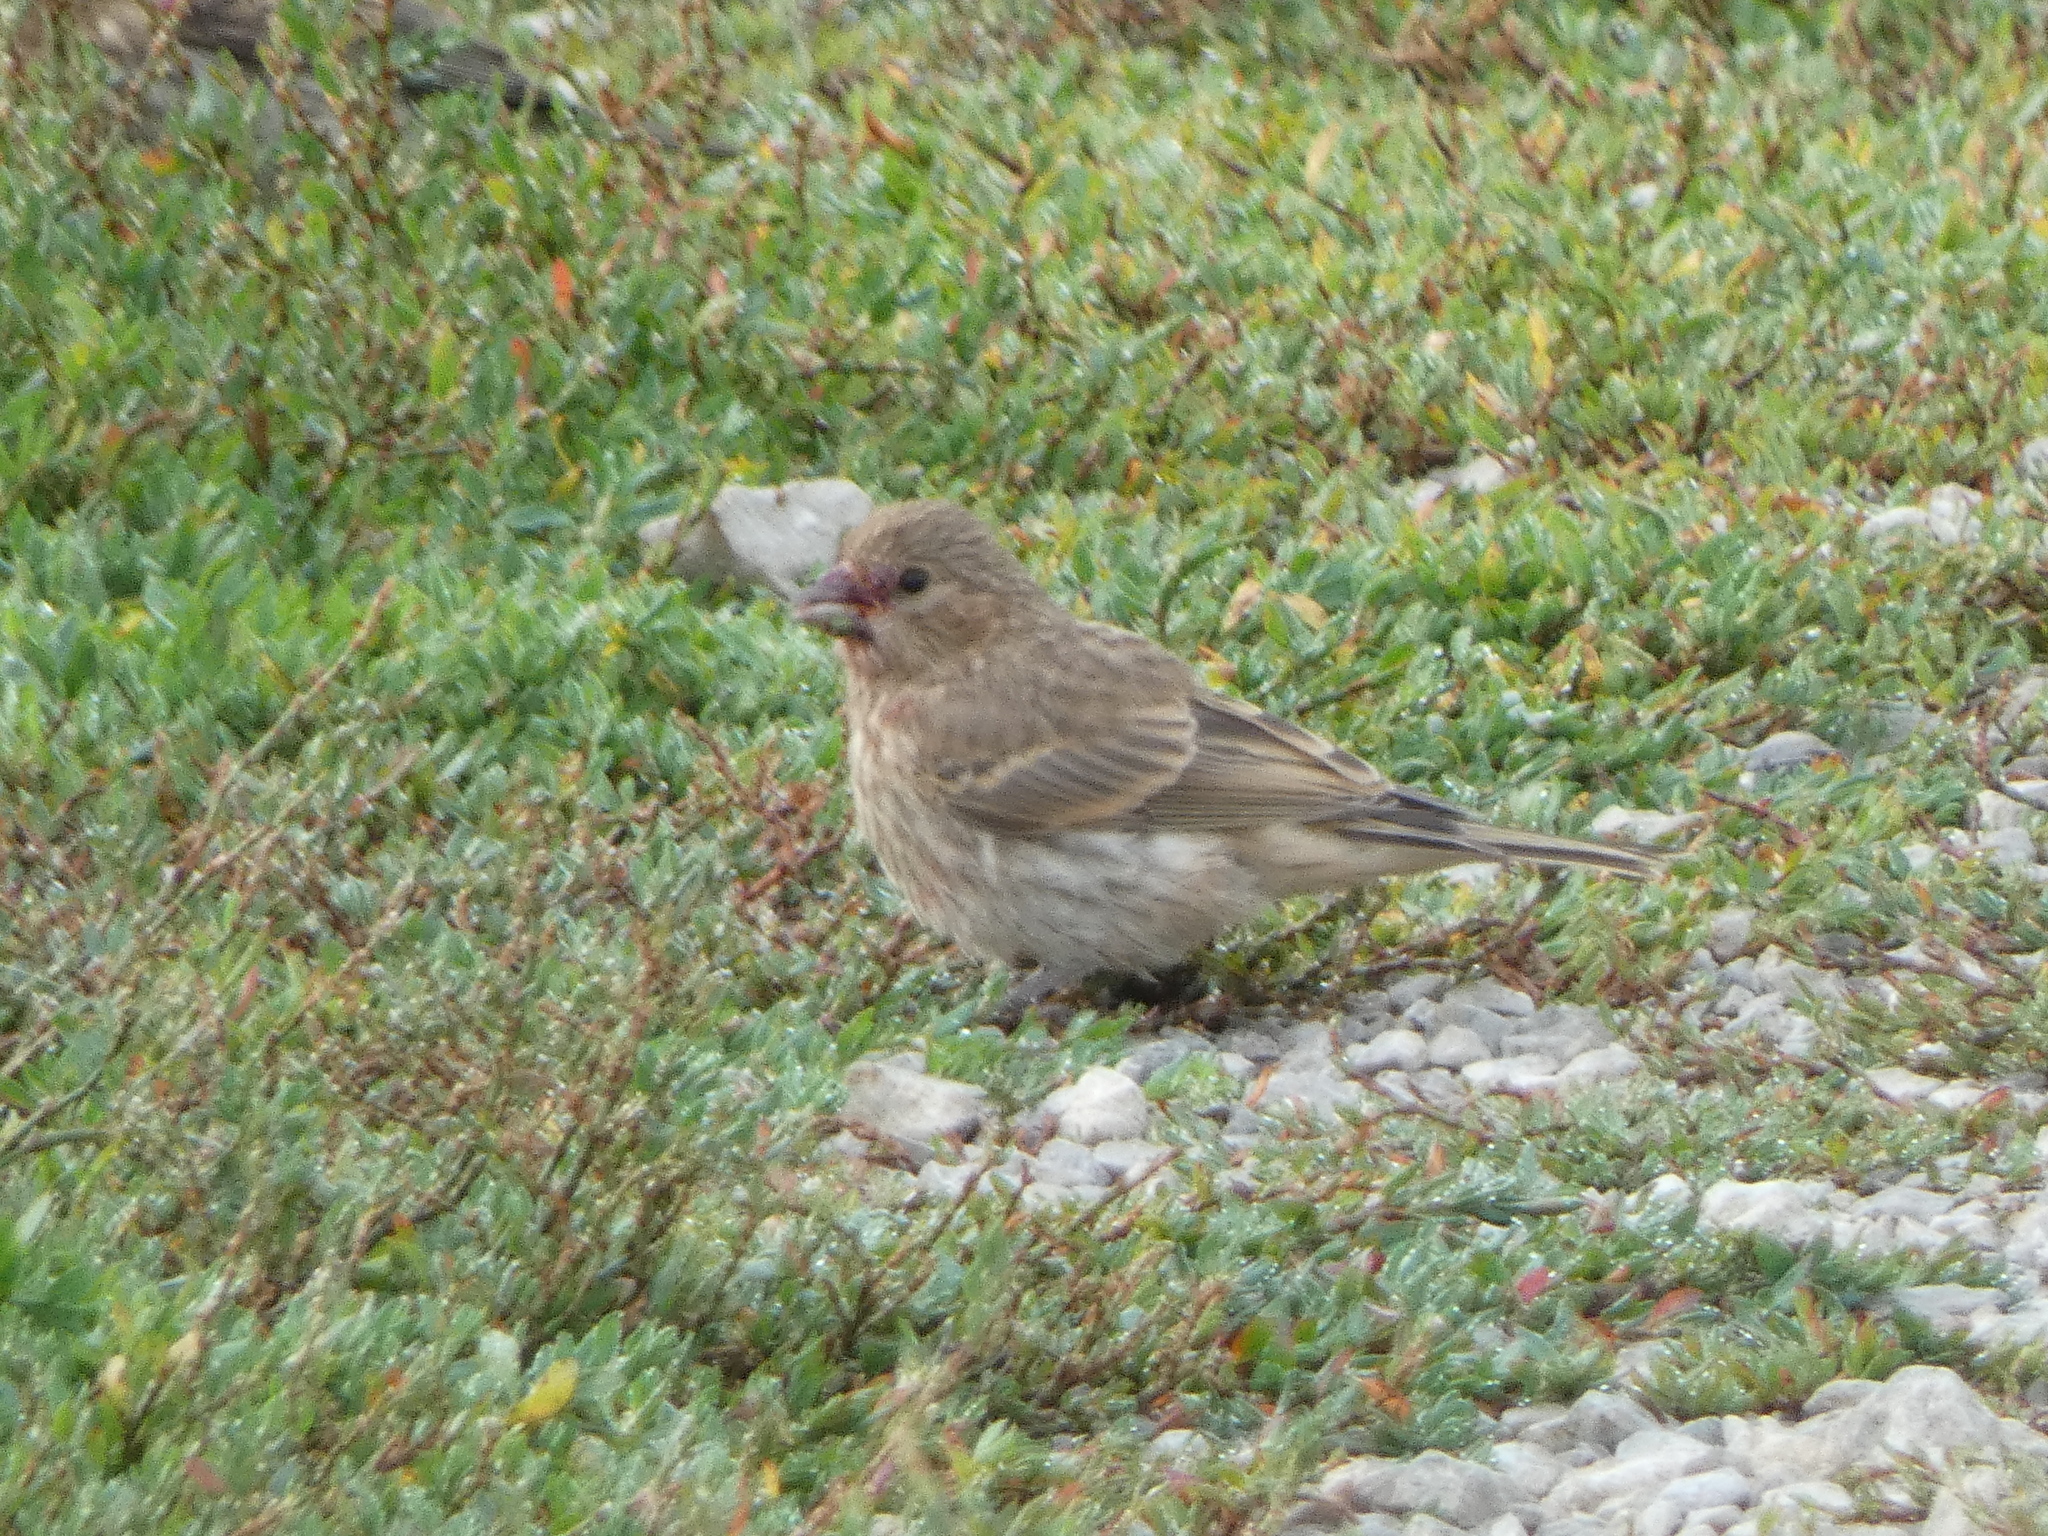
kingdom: Animalia
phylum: Chordata
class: Aves
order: Passeriformes
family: Fringillidae
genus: Haemorhous
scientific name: Haemorhous mexicanus
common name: House finch
